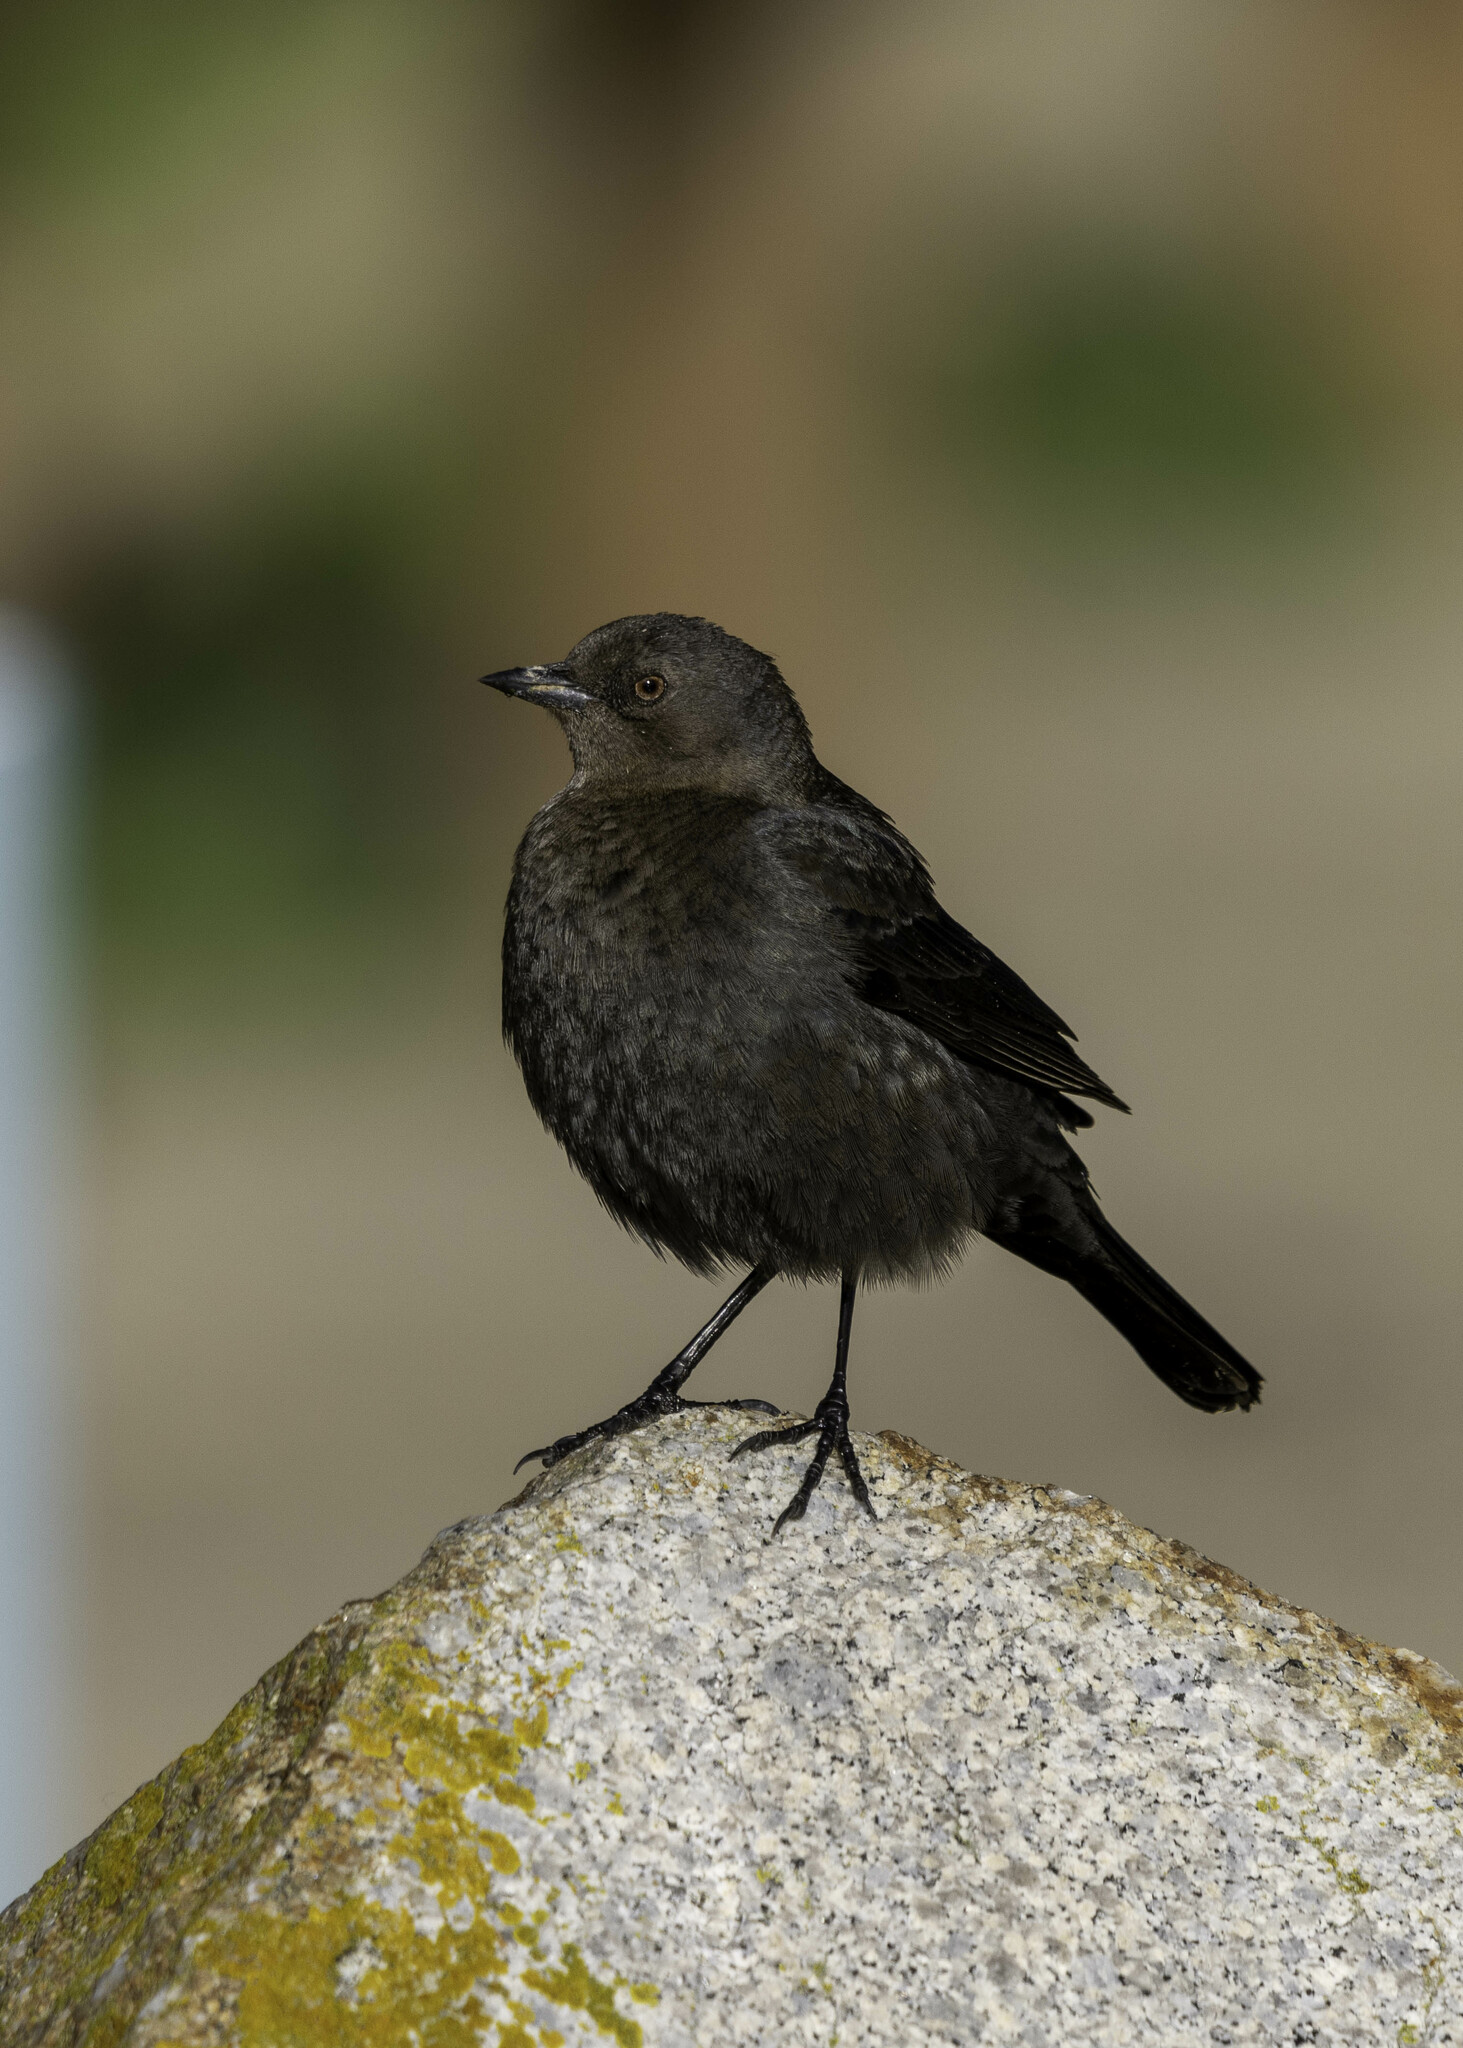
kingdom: Animalia
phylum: Chordata
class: Aves
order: Passeriformes
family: Icteridae
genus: Euphagus
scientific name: Euphagus cyanocephalus
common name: Brewer's blackbird
